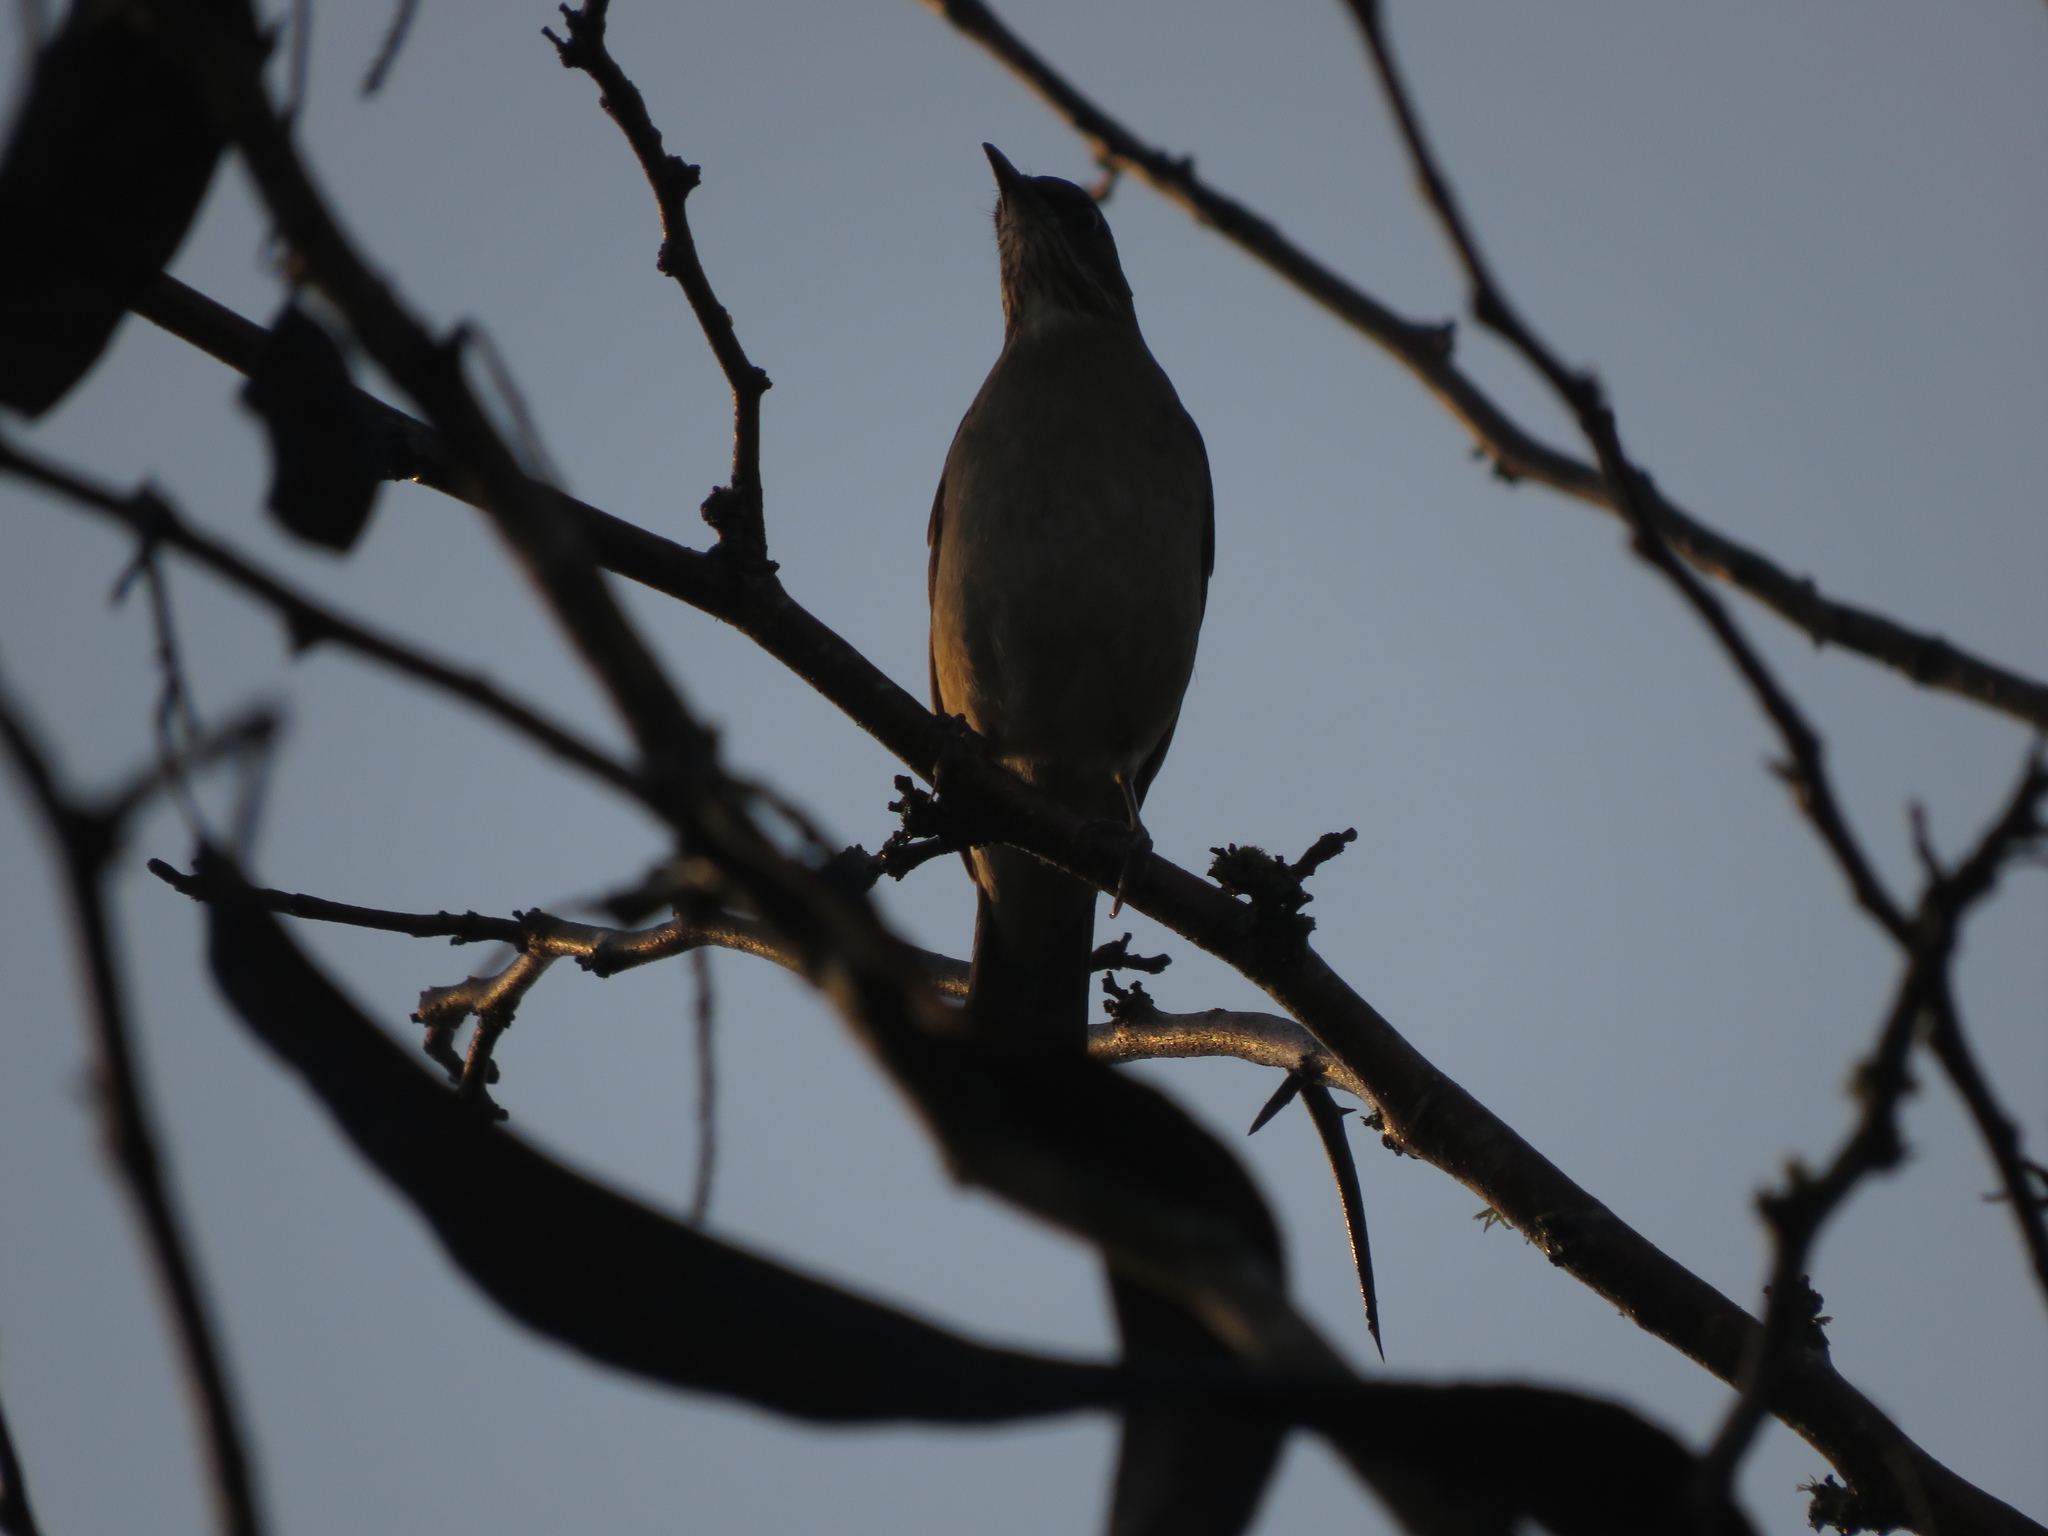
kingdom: Animalia
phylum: Chordata
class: Aves
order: Passeriformes
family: Turdidae
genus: Turdus
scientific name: Turdus amaurochalinus
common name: Creamy-bellied thrush
